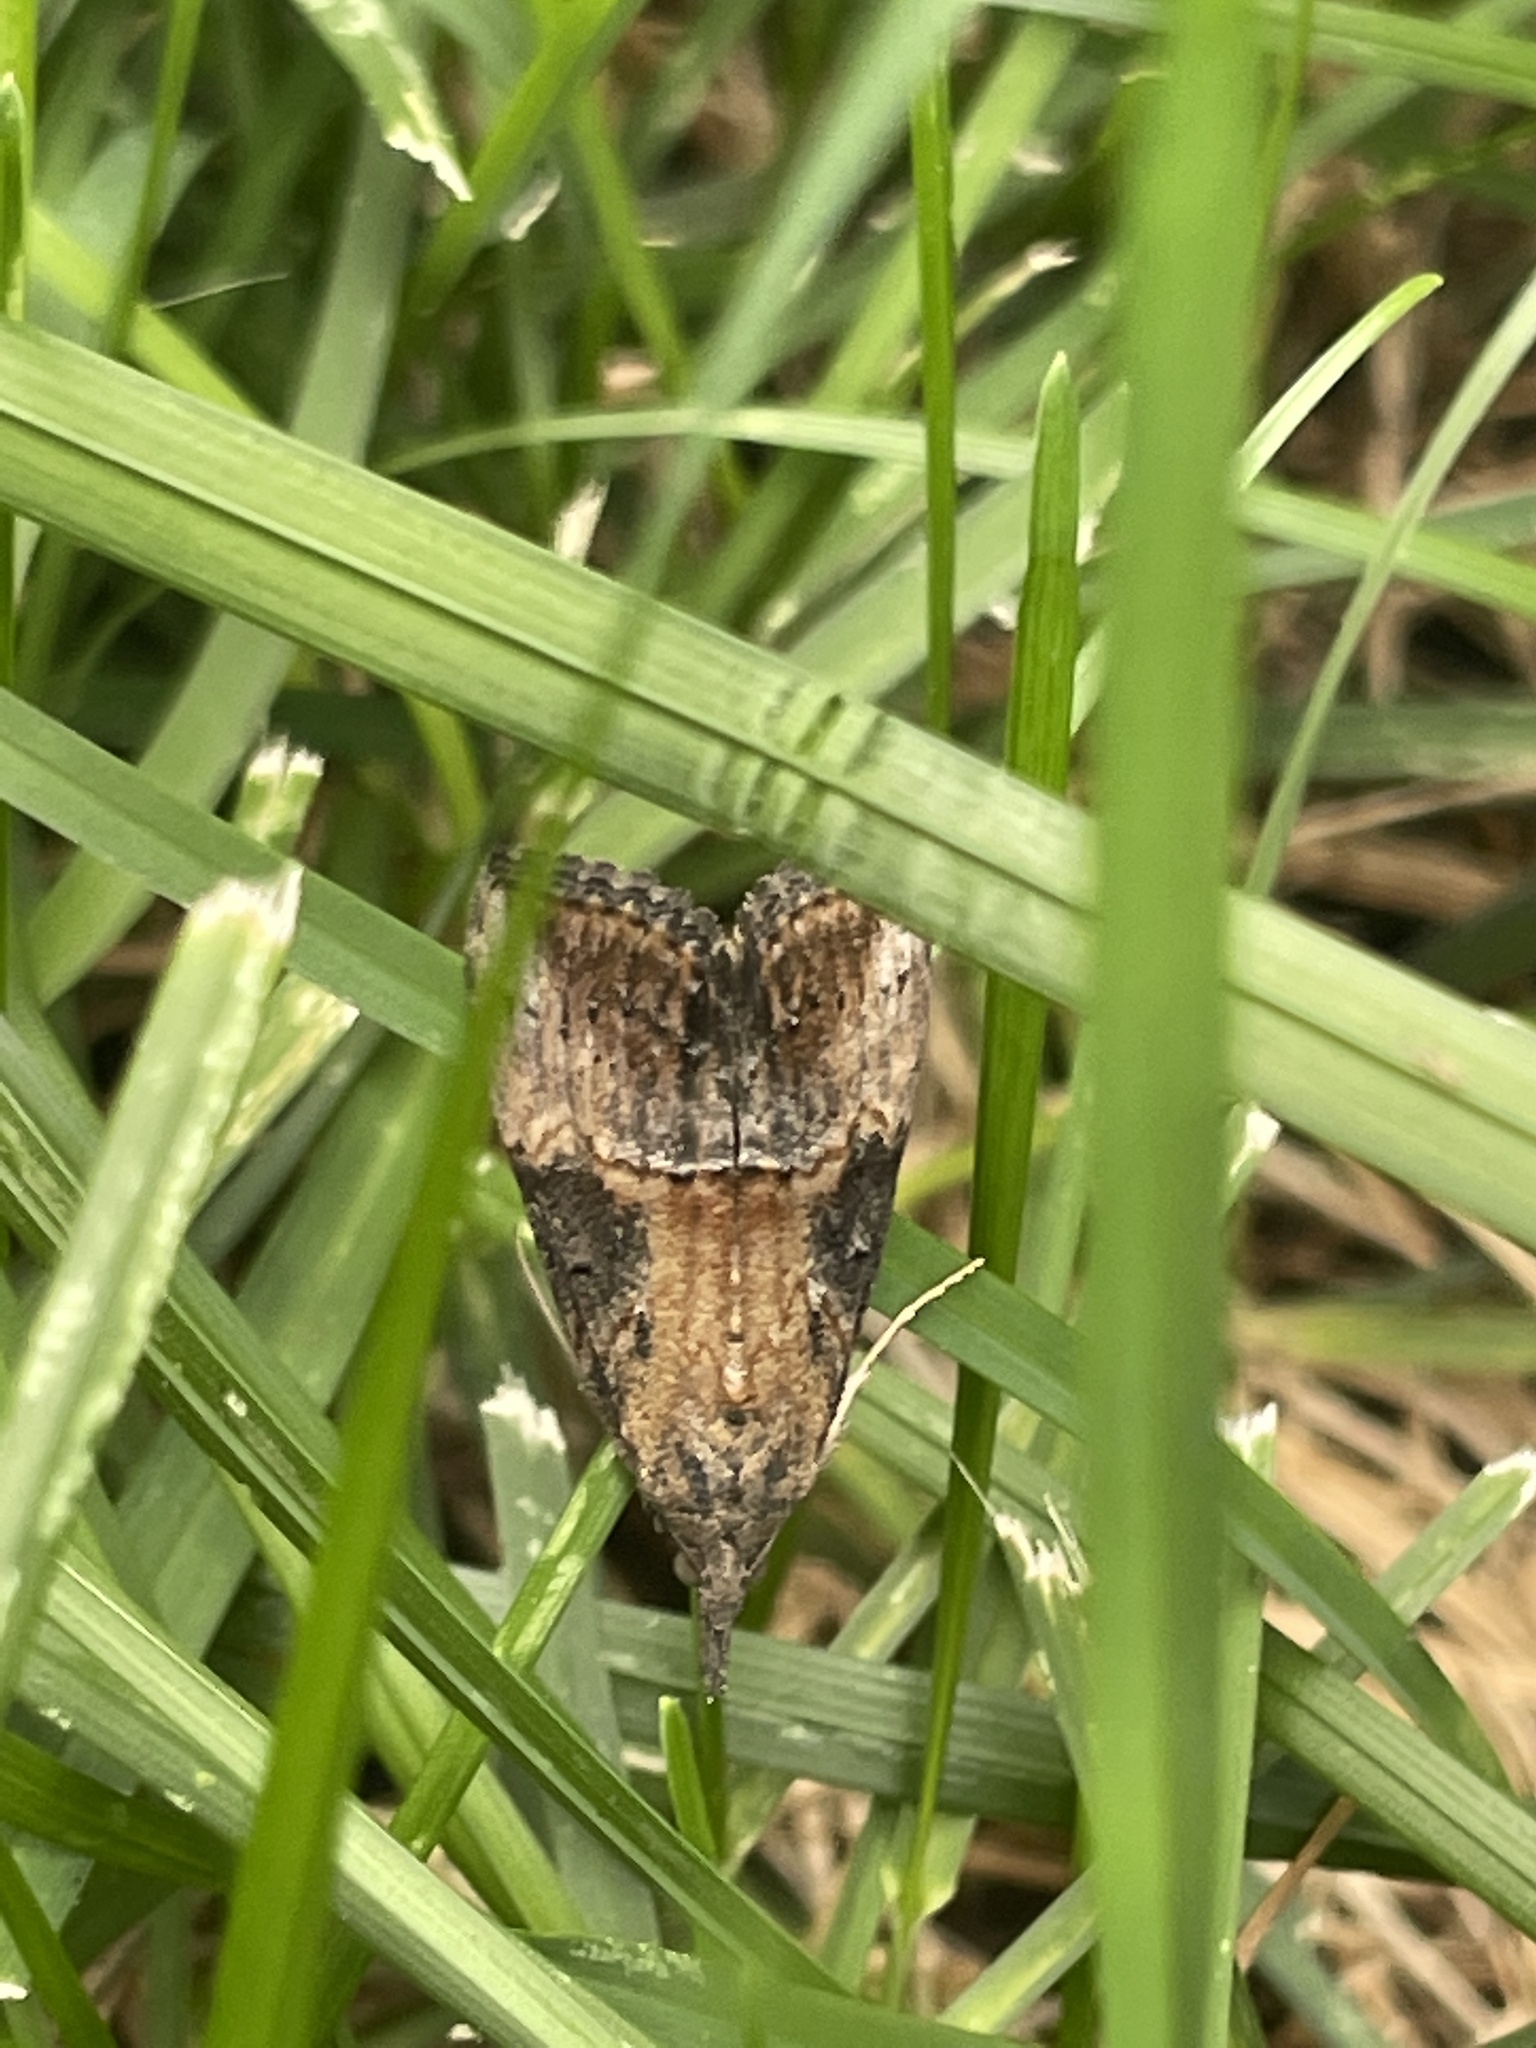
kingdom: Animalia
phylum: Arthropoda
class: Insecta
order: Lepidoptera
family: Erebidae
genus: Hypena
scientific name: Hypena scabra
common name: Green cloverworm
